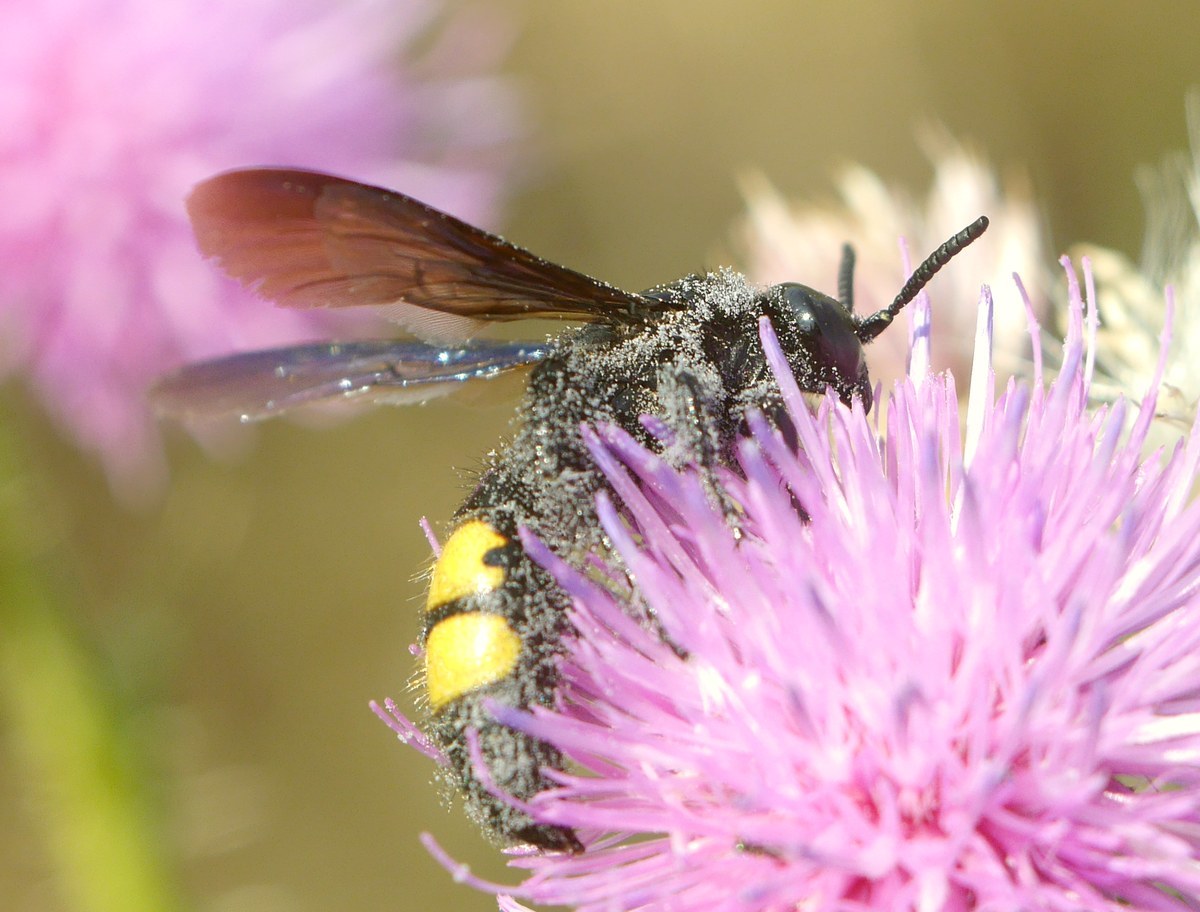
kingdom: Animalia
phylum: Arthropoda
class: Insecta
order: Hymenoptera
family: Scoliidae
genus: Scolia
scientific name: Scolia hirta
